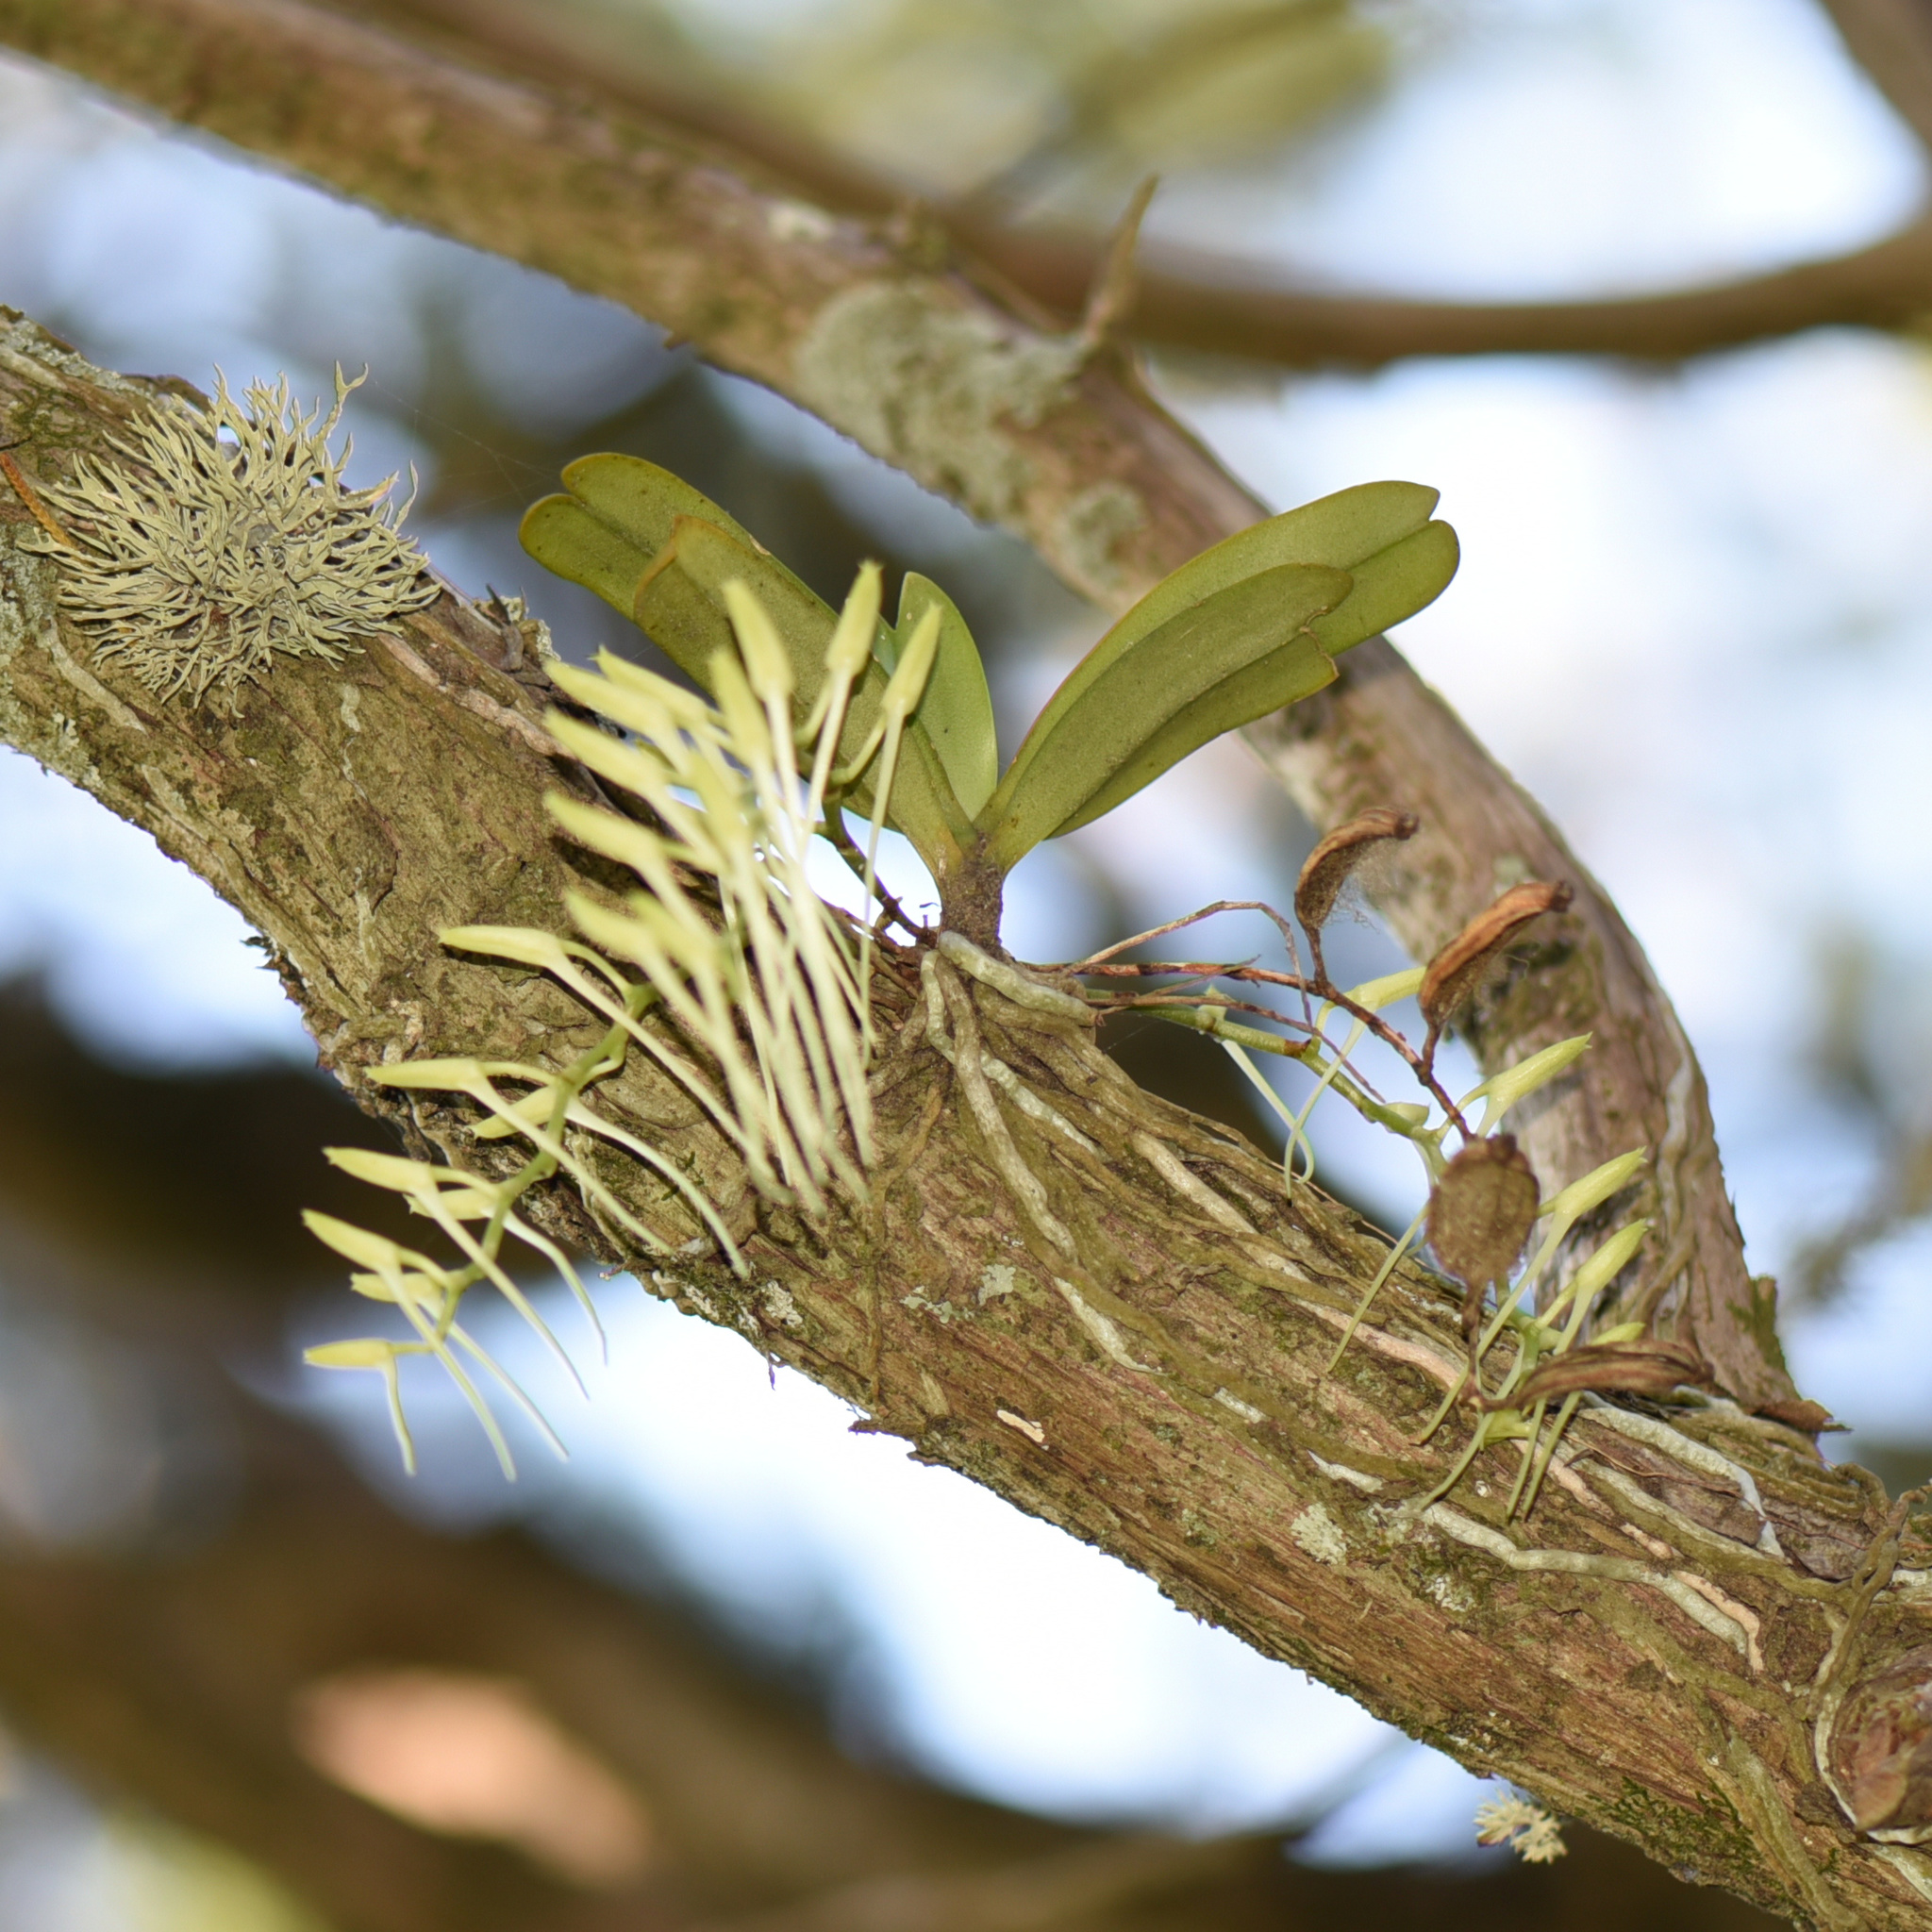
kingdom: Plantae
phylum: Tracheophyta
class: Liliopsida
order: Asparagales
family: Orchidaceae
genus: Mystacidium
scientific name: Mystacidium capense
